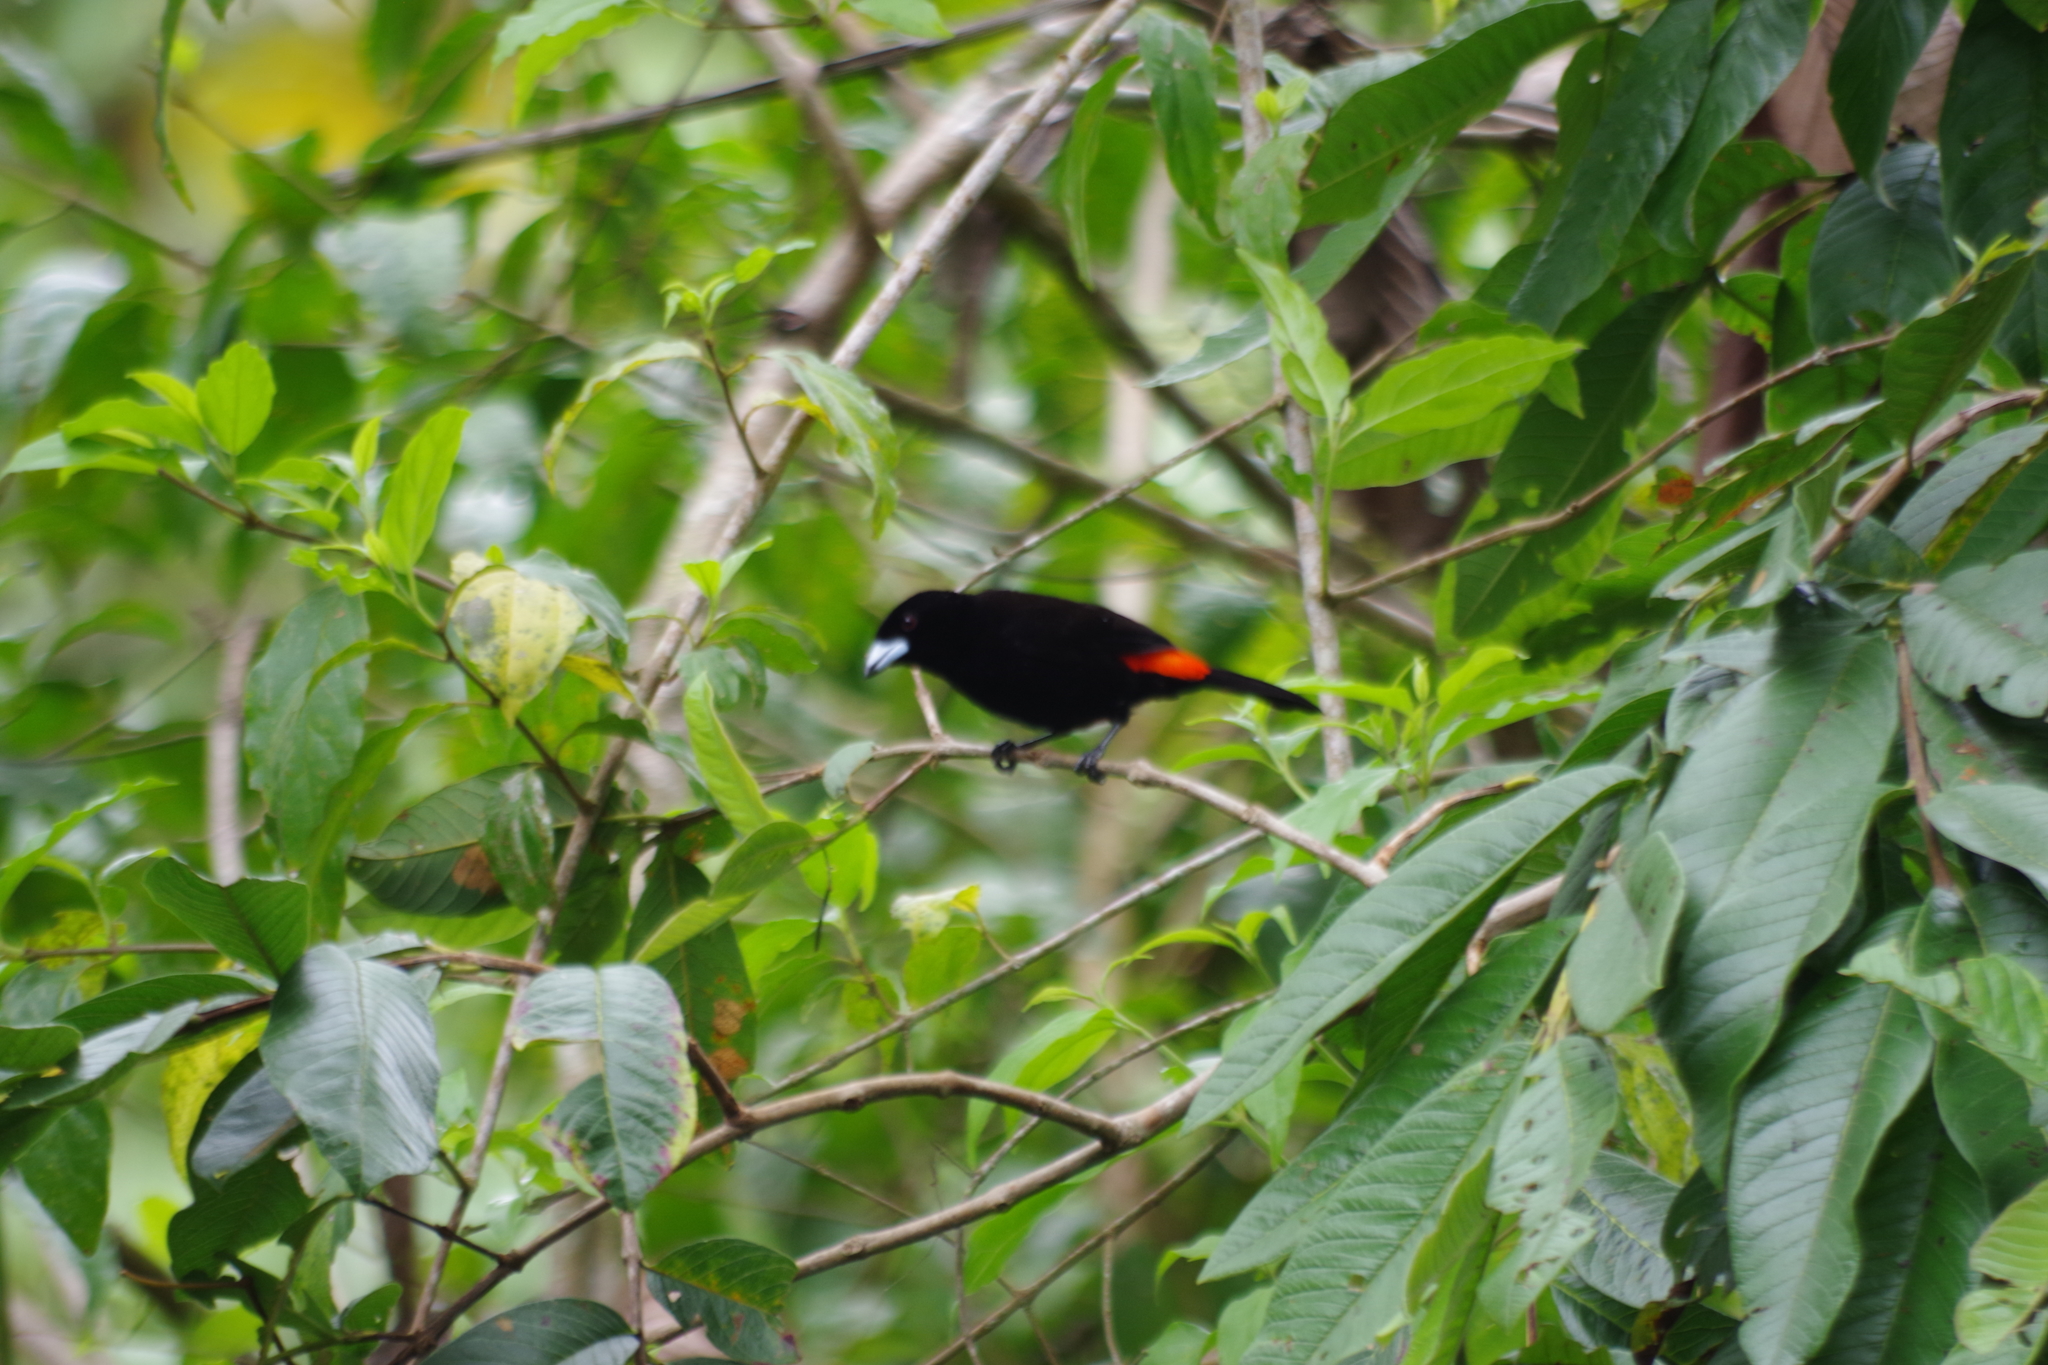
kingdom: Animalia
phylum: Chordata
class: Aves
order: Passeriformes
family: Thraupidae
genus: Ramphocelus
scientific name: Ramphocelus passerinii
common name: Passerini's tanager
